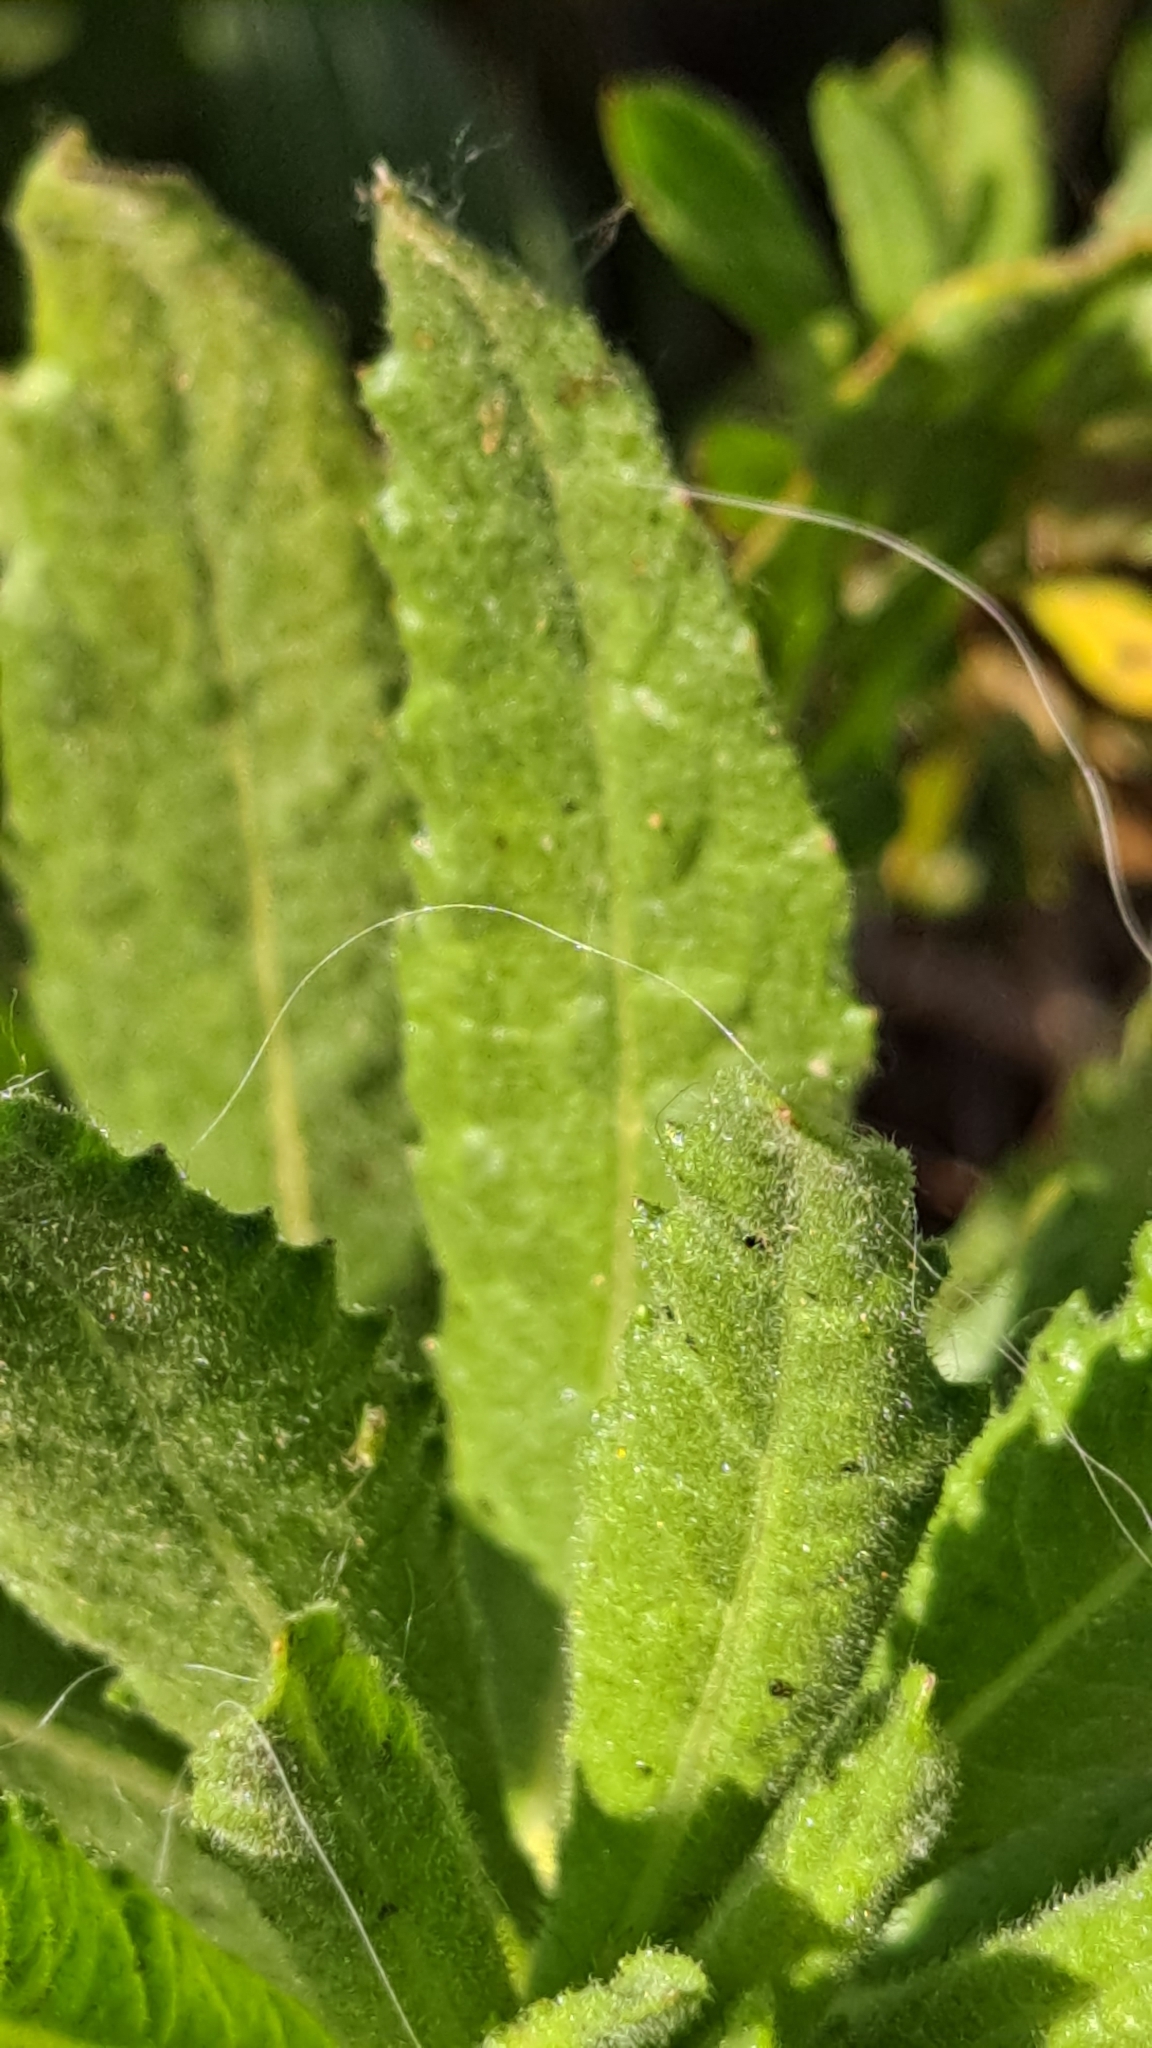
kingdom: Plantae
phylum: Tracheophyta
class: Magnoliopsida
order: Asterales
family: Asteraceae
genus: Dittrichia
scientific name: Dittrichia viscosa
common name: Woody fleabane
